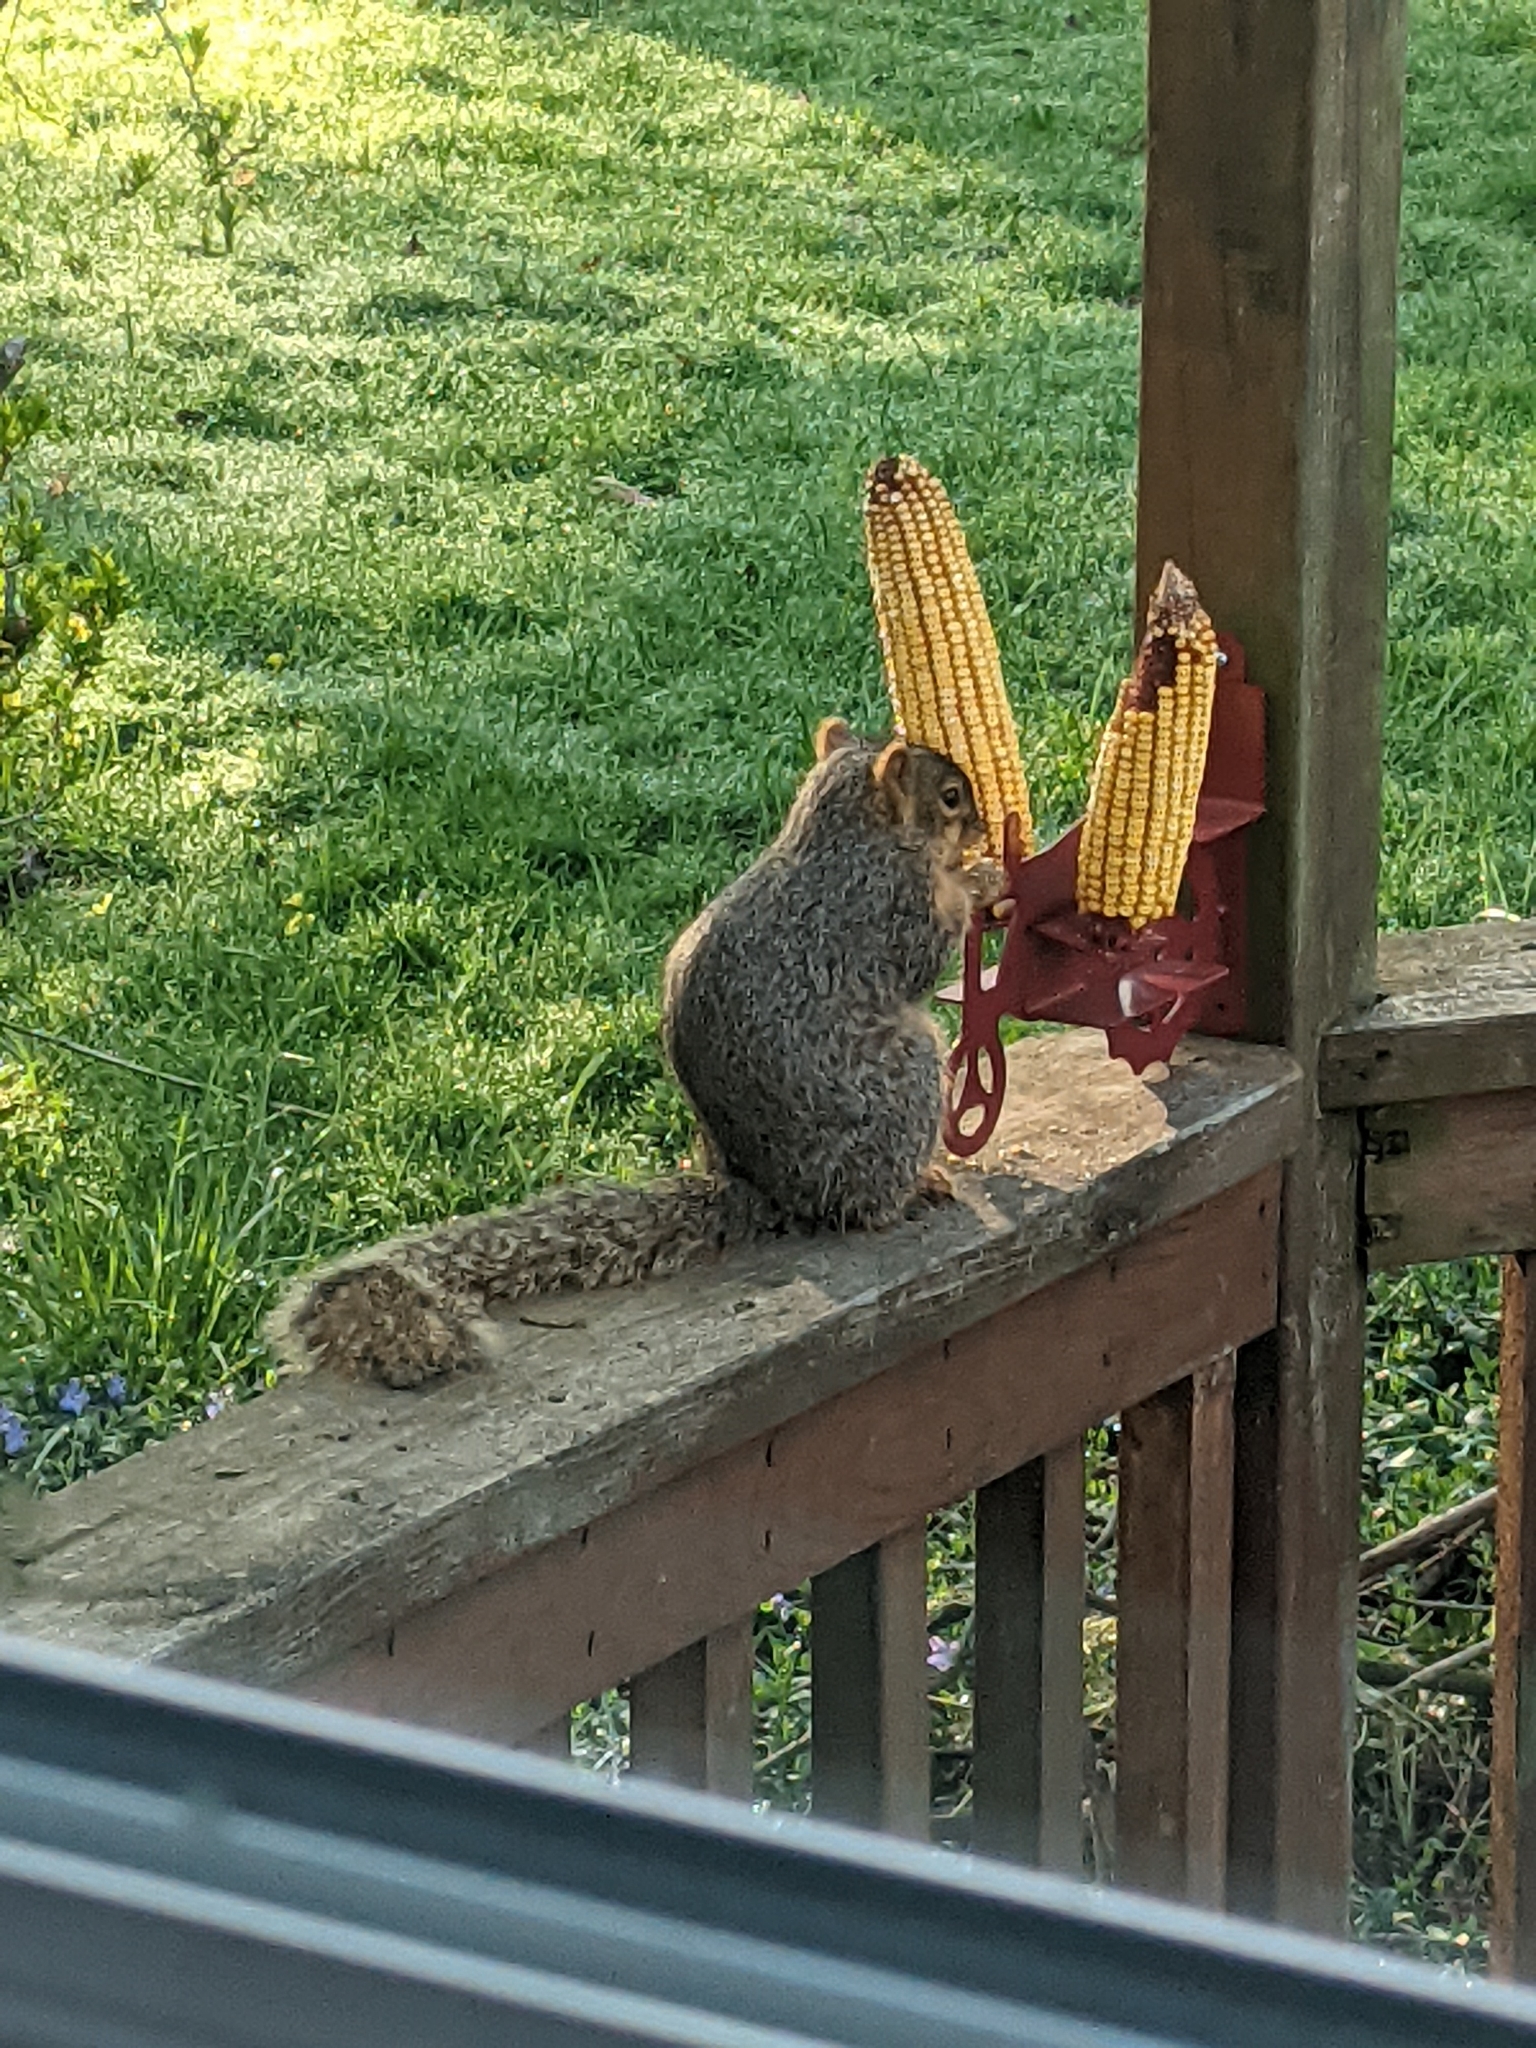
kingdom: Animalia
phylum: Chordata
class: Mammalia
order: Rodentia
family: Sciuridae
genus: Sciurus
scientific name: Sciurus niger
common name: Fox squirrel
